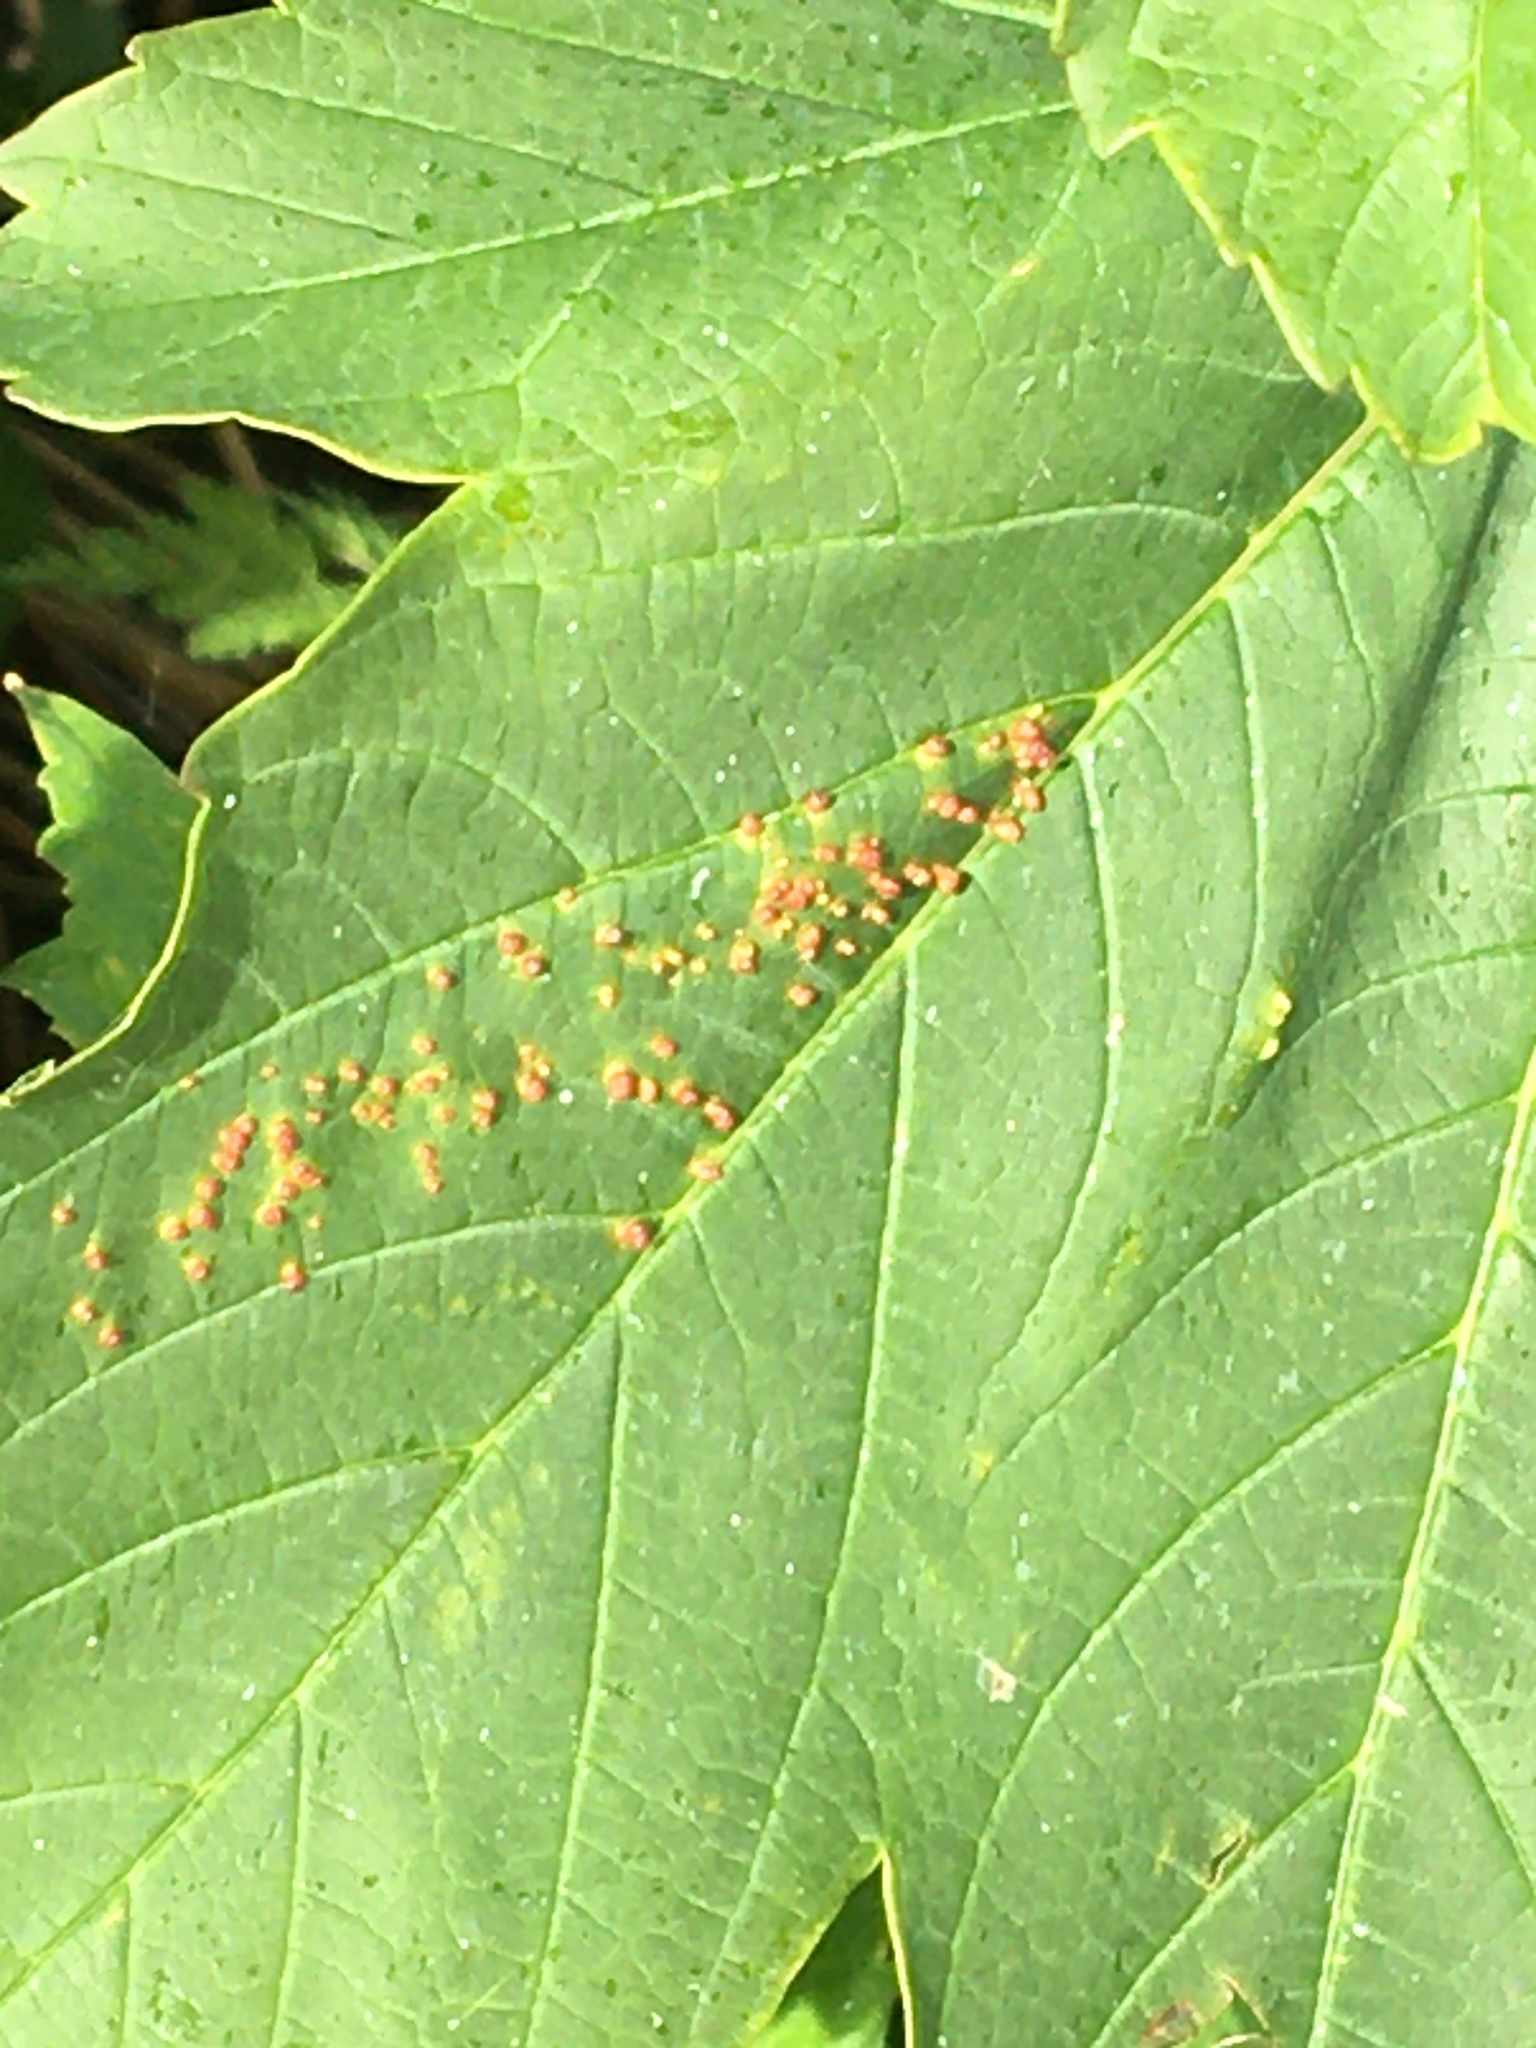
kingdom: Animalia
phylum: Arthropoda
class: Arachnida
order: Trombidiformes
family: Eriophyidae
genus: Aceria
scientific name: Aceria cephaloneus
